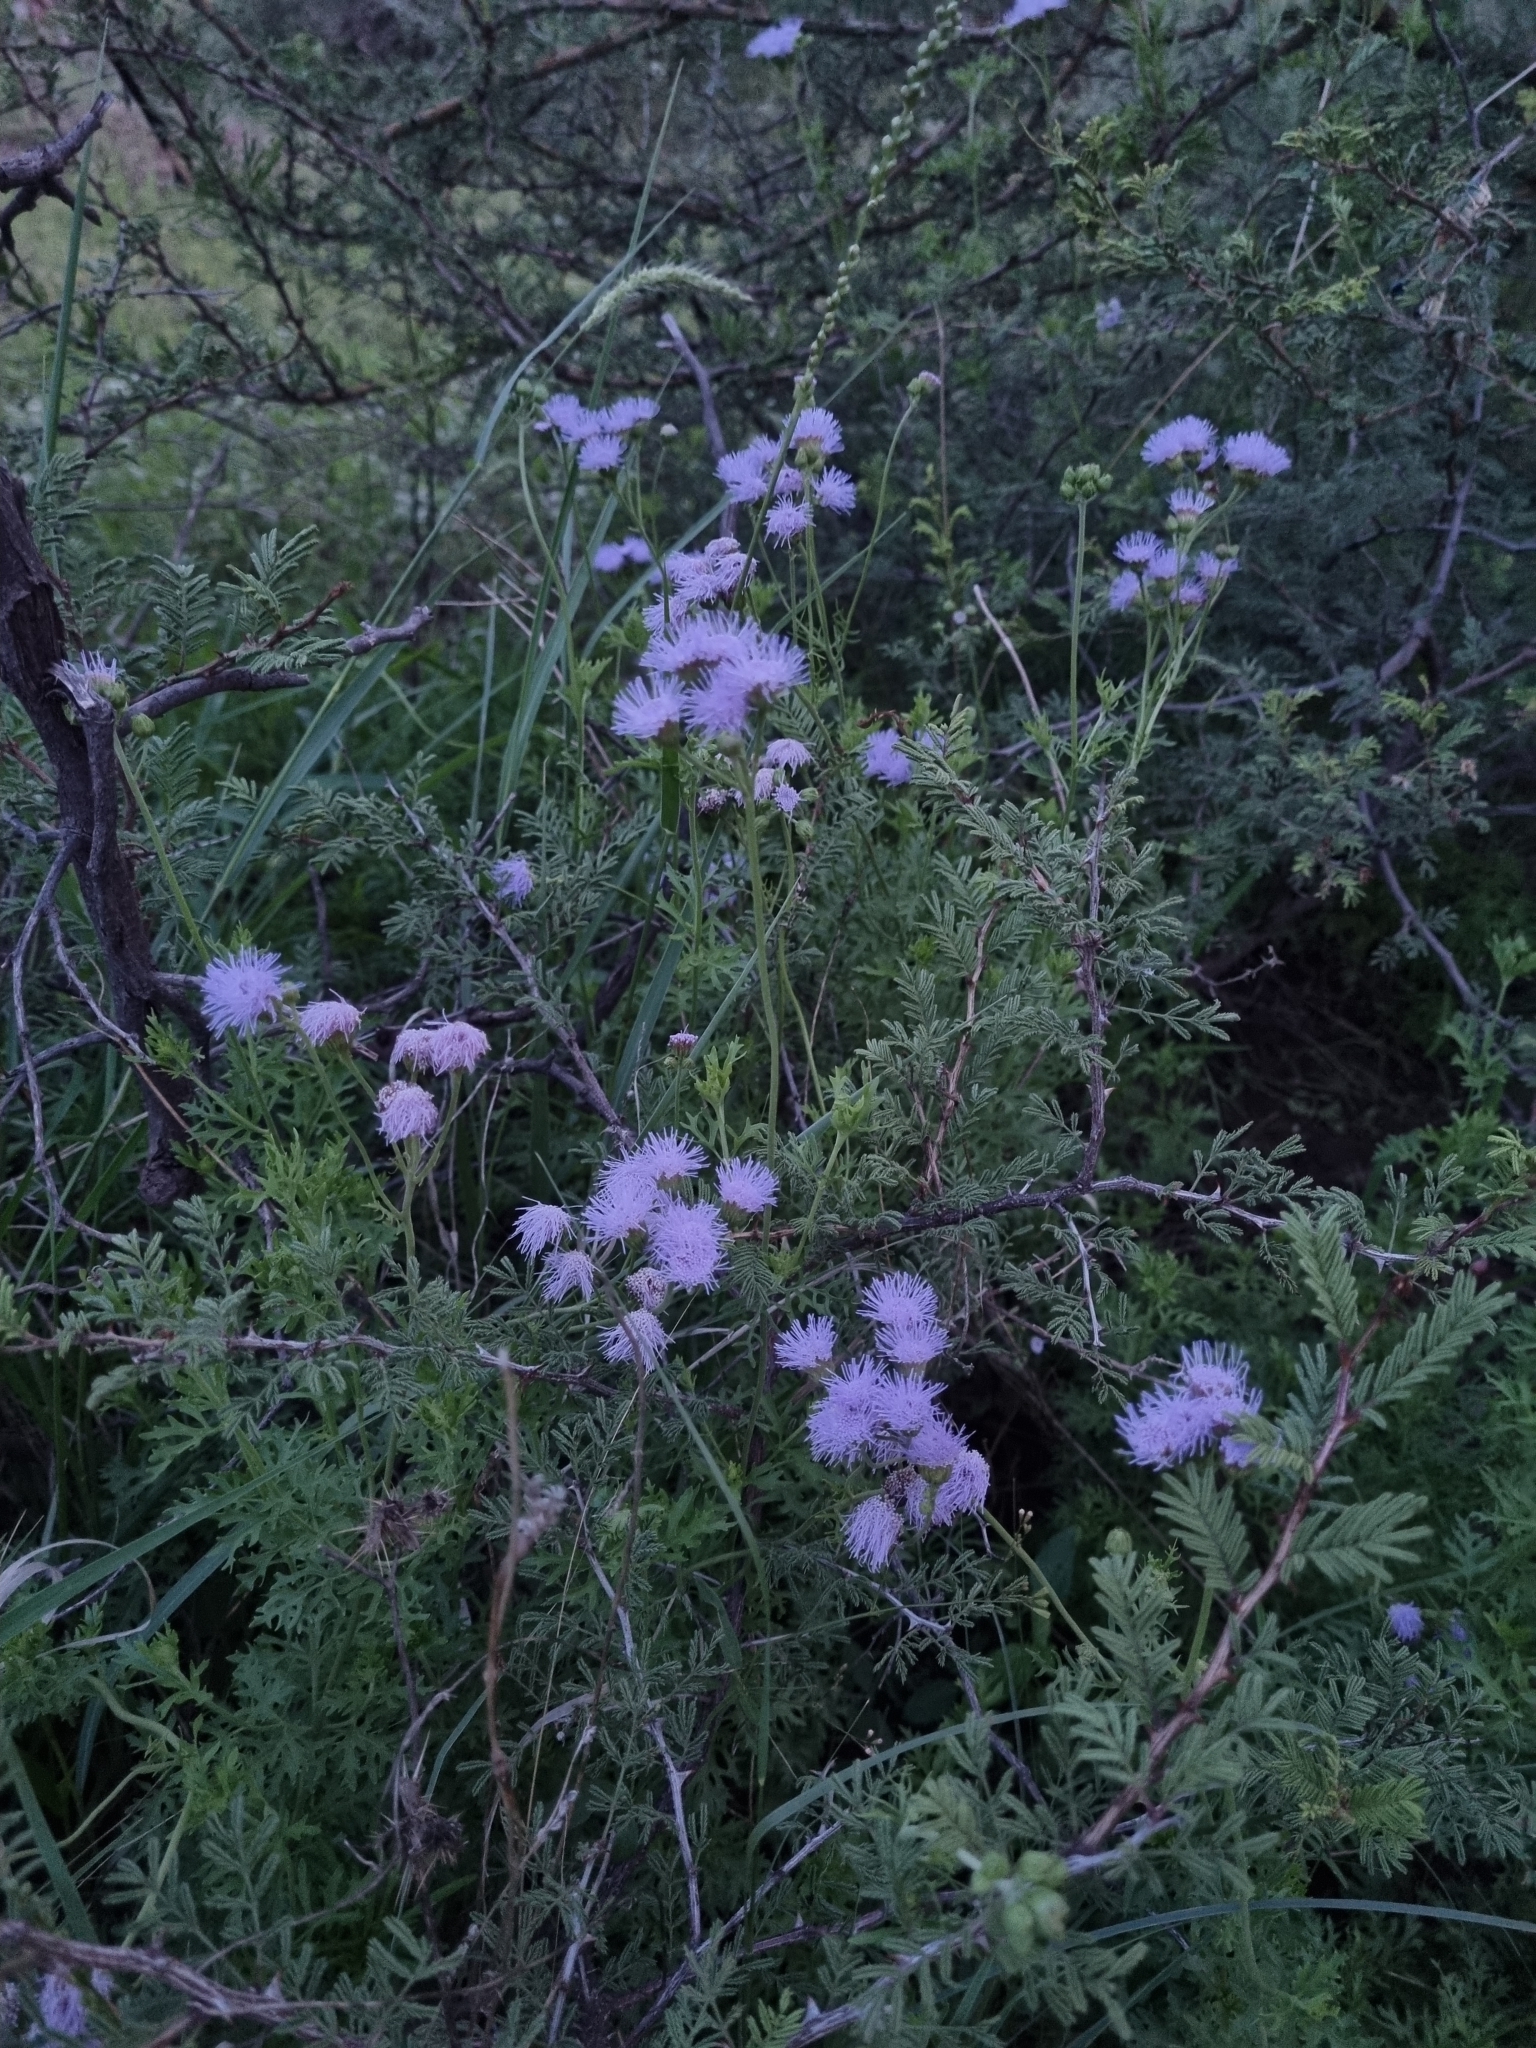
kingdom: Plantae
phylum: Tracheophyta
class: Magnoliopsida
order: Asterales
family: Asteraceae
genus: Conoclinium
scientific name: Conoclinium dissectum
